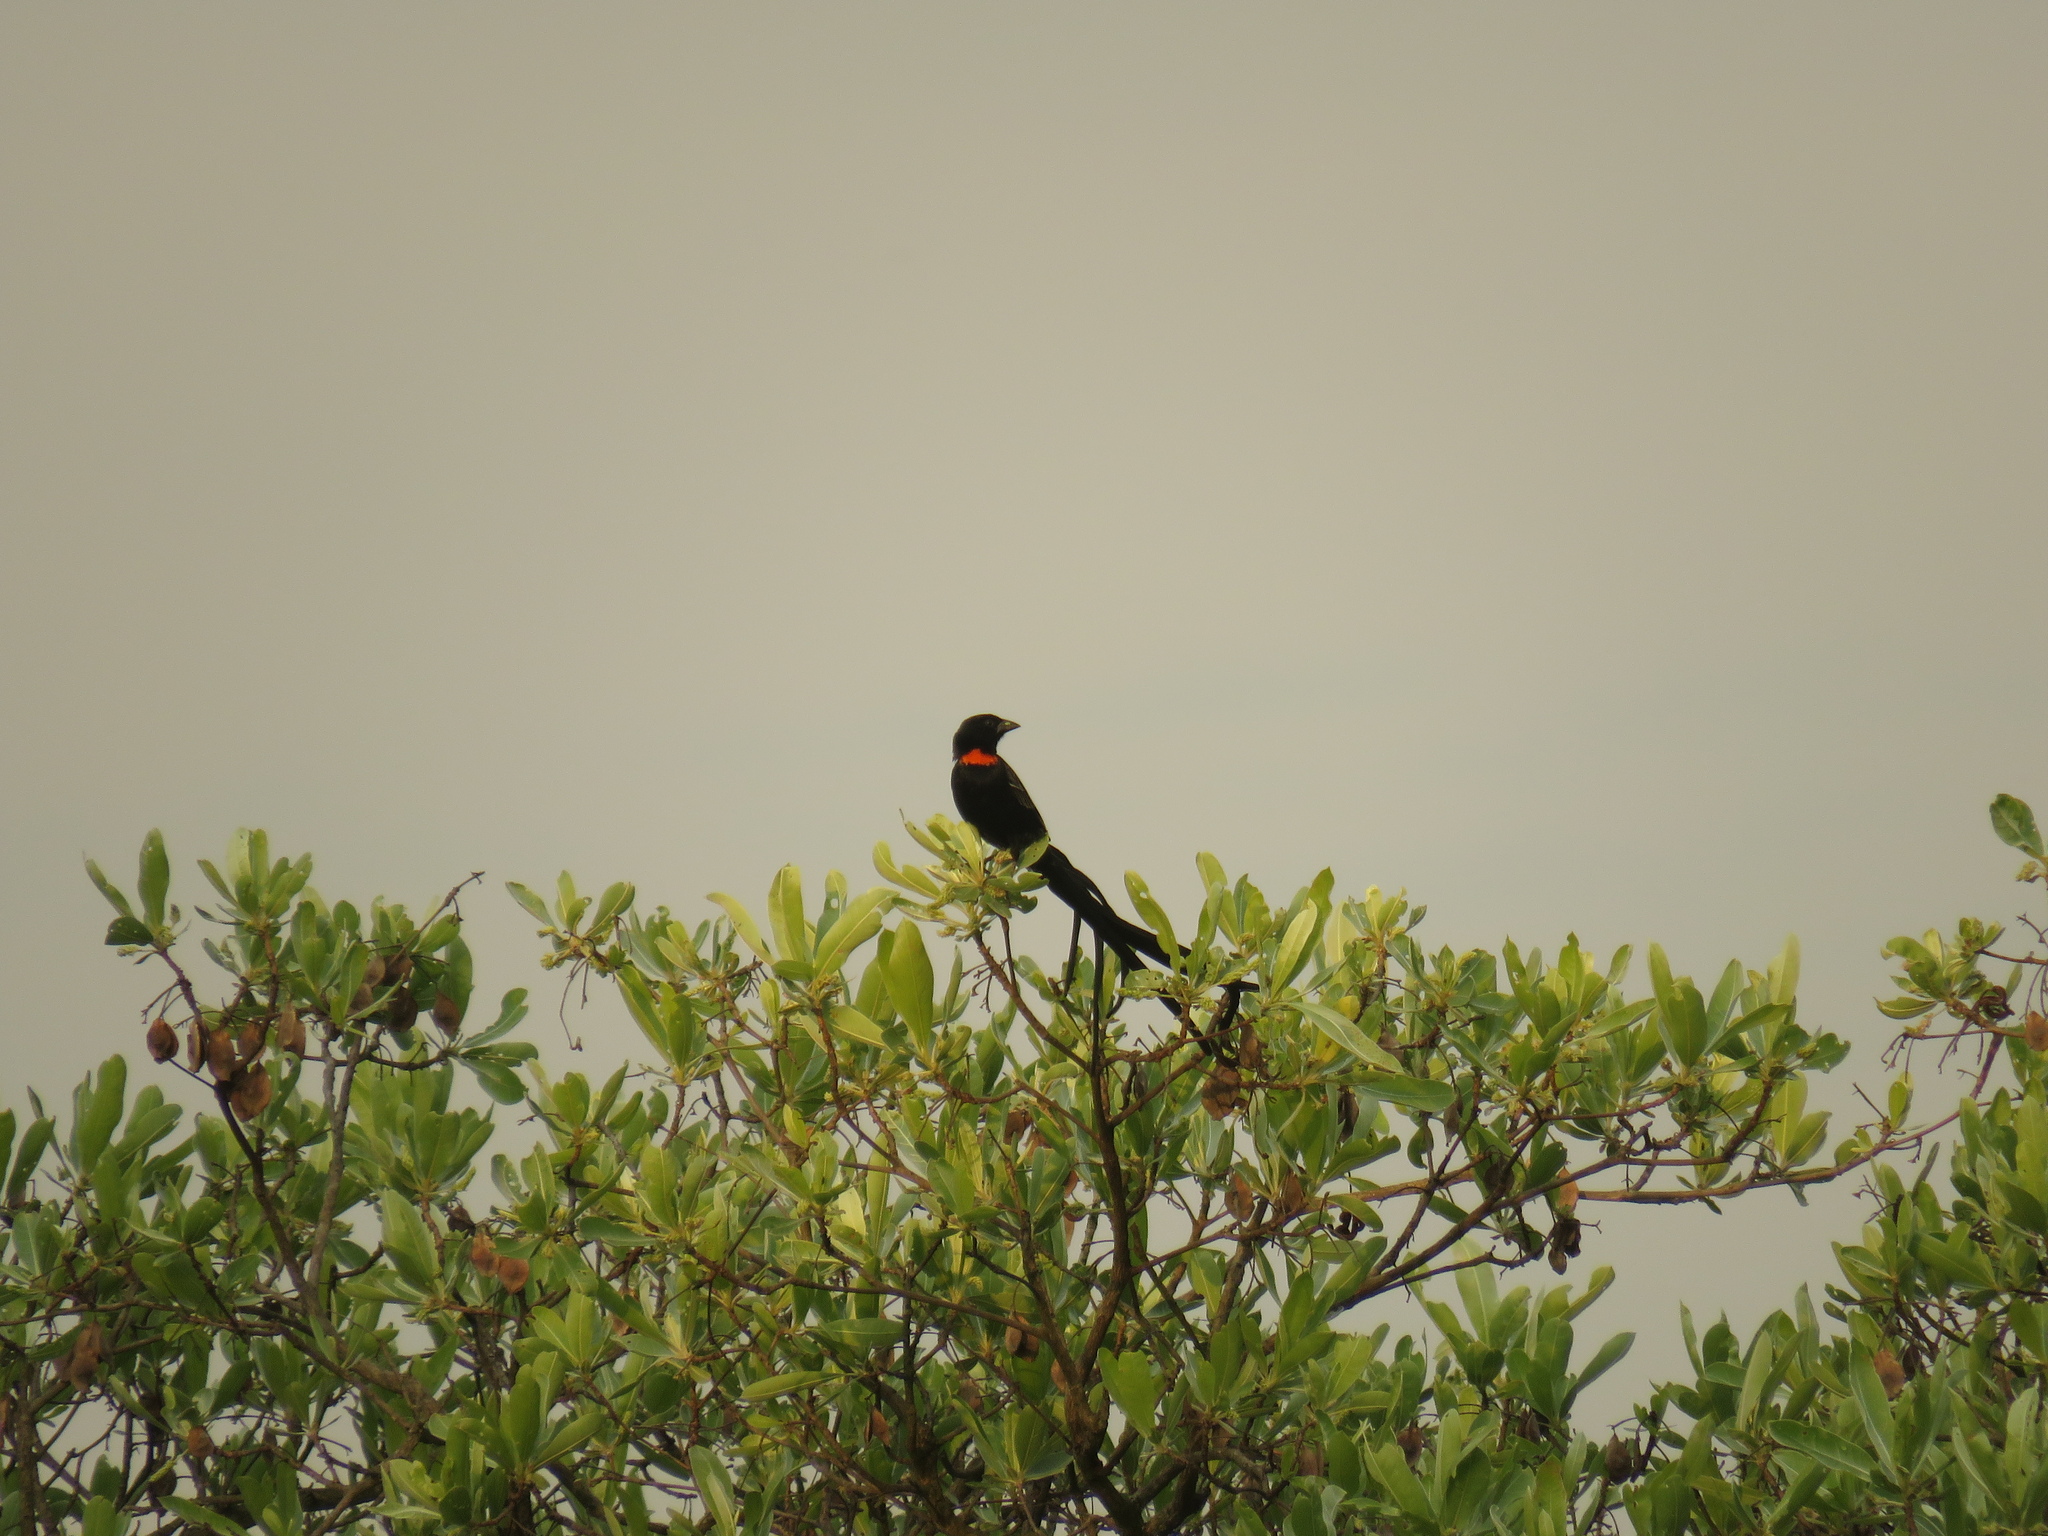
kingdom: Animalia
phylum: Chordata
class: Aves
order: Passeriformes
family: Ploceidae
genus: Euplectes
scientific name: Euplectes ardens
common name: Red-collared widowbird
